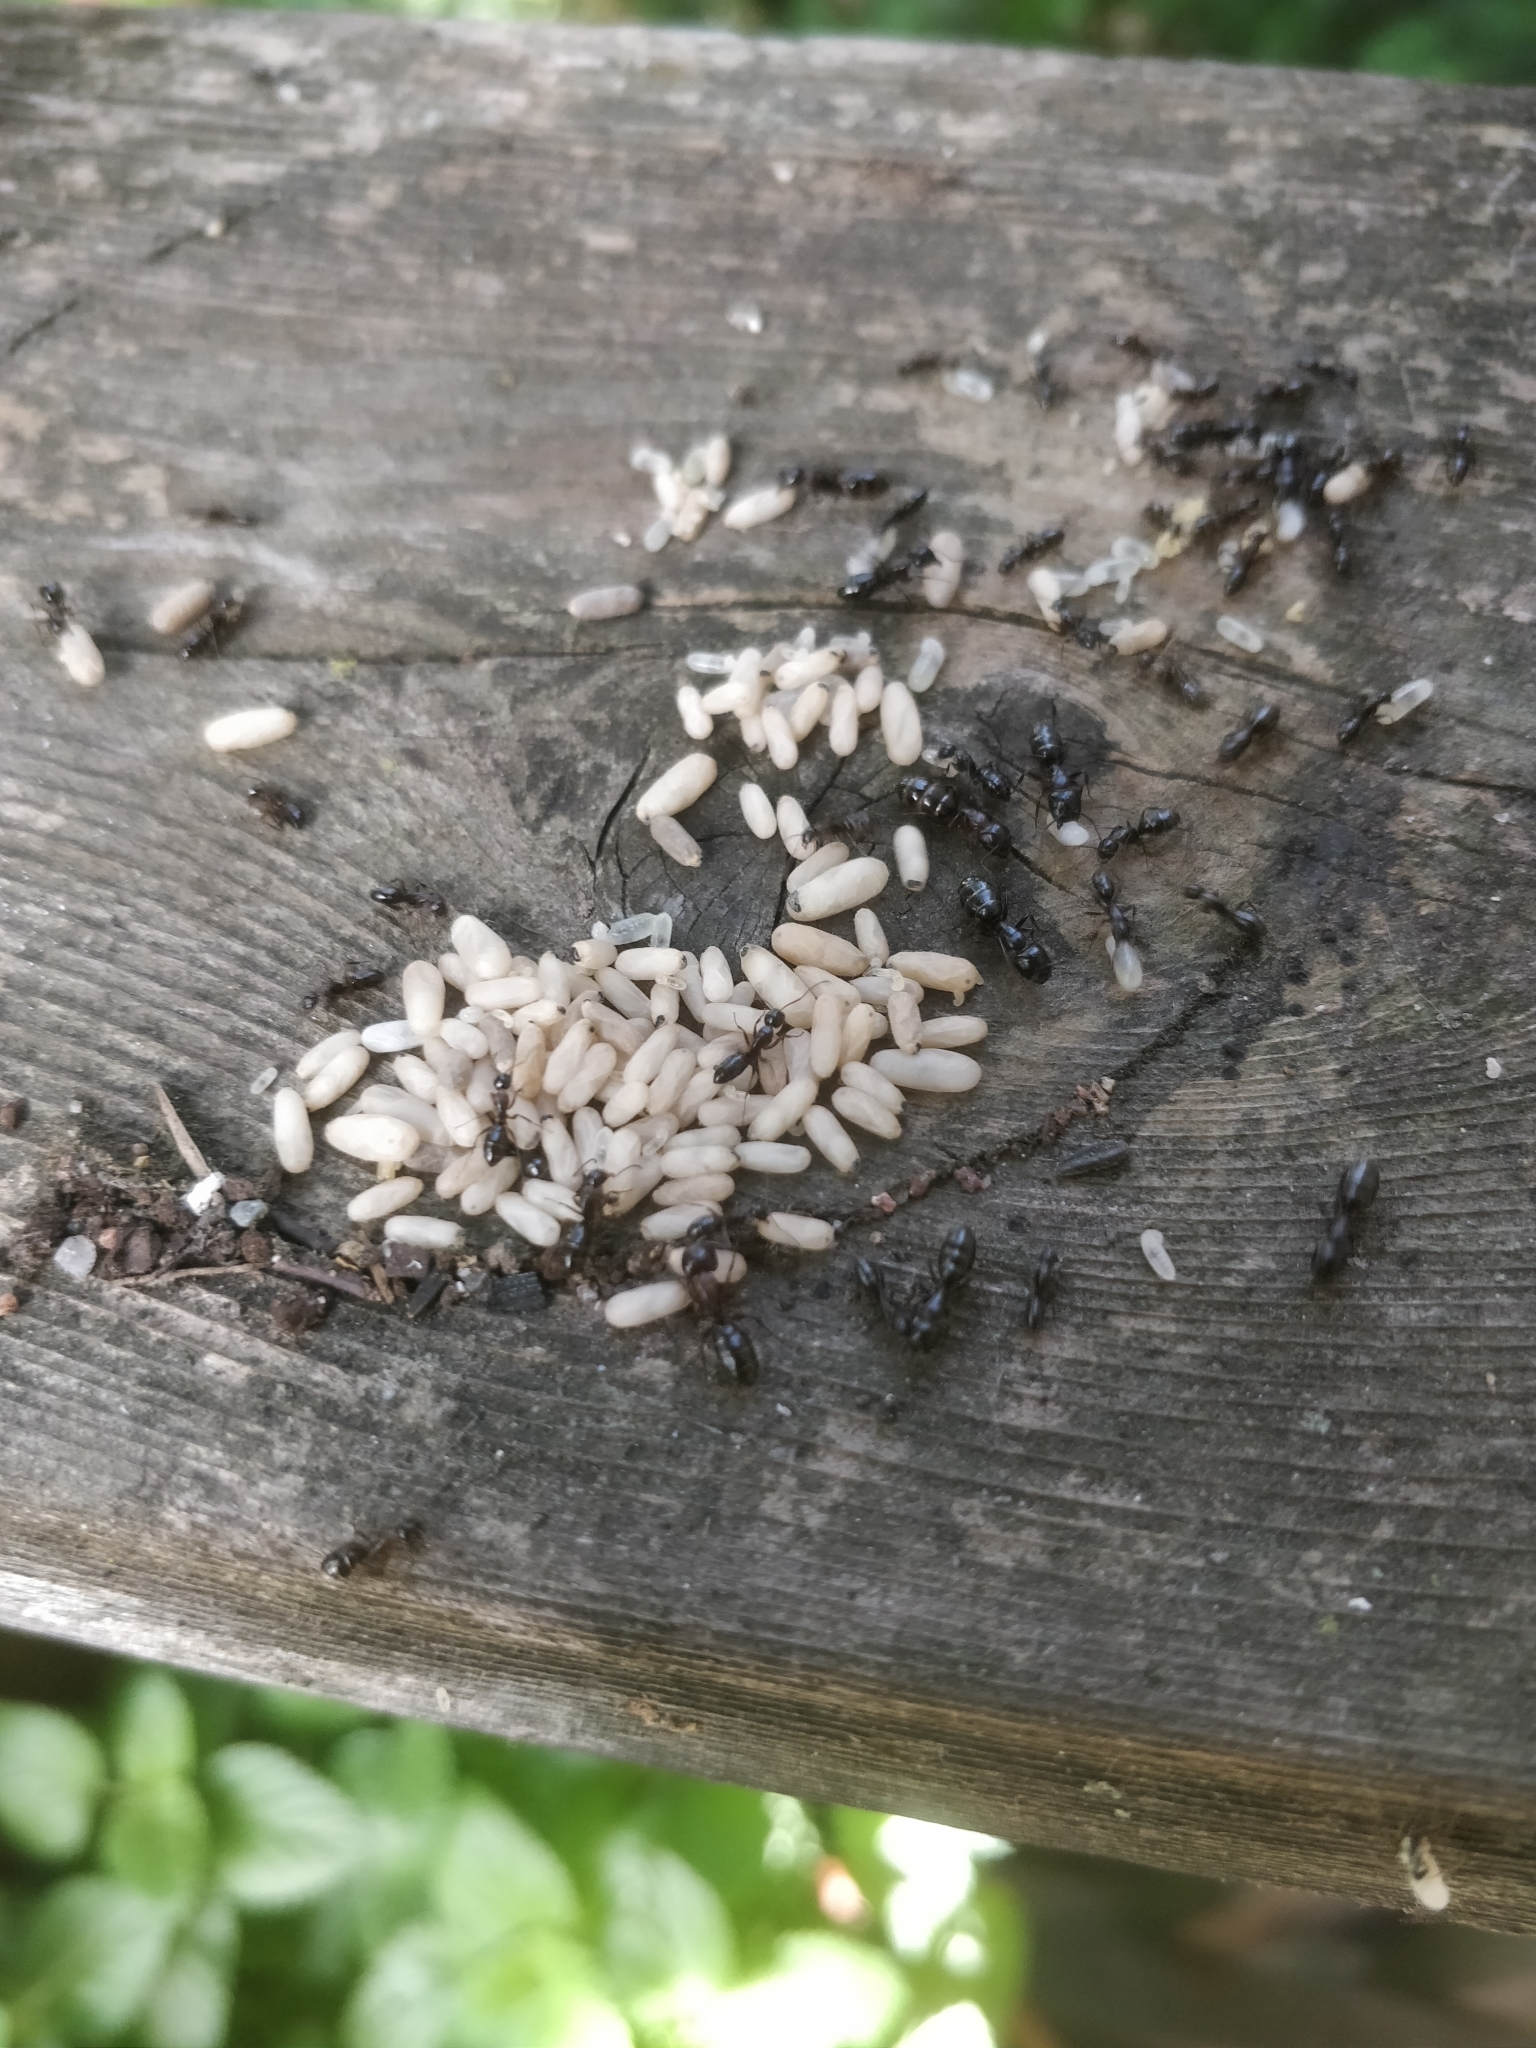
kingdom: Animalia
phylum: Arthropoda
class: Insecta
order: Hymenoptera
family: Formicidae
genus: Camponotus
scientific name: Camponotus nearcticus
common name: Smaller carpenter ant
